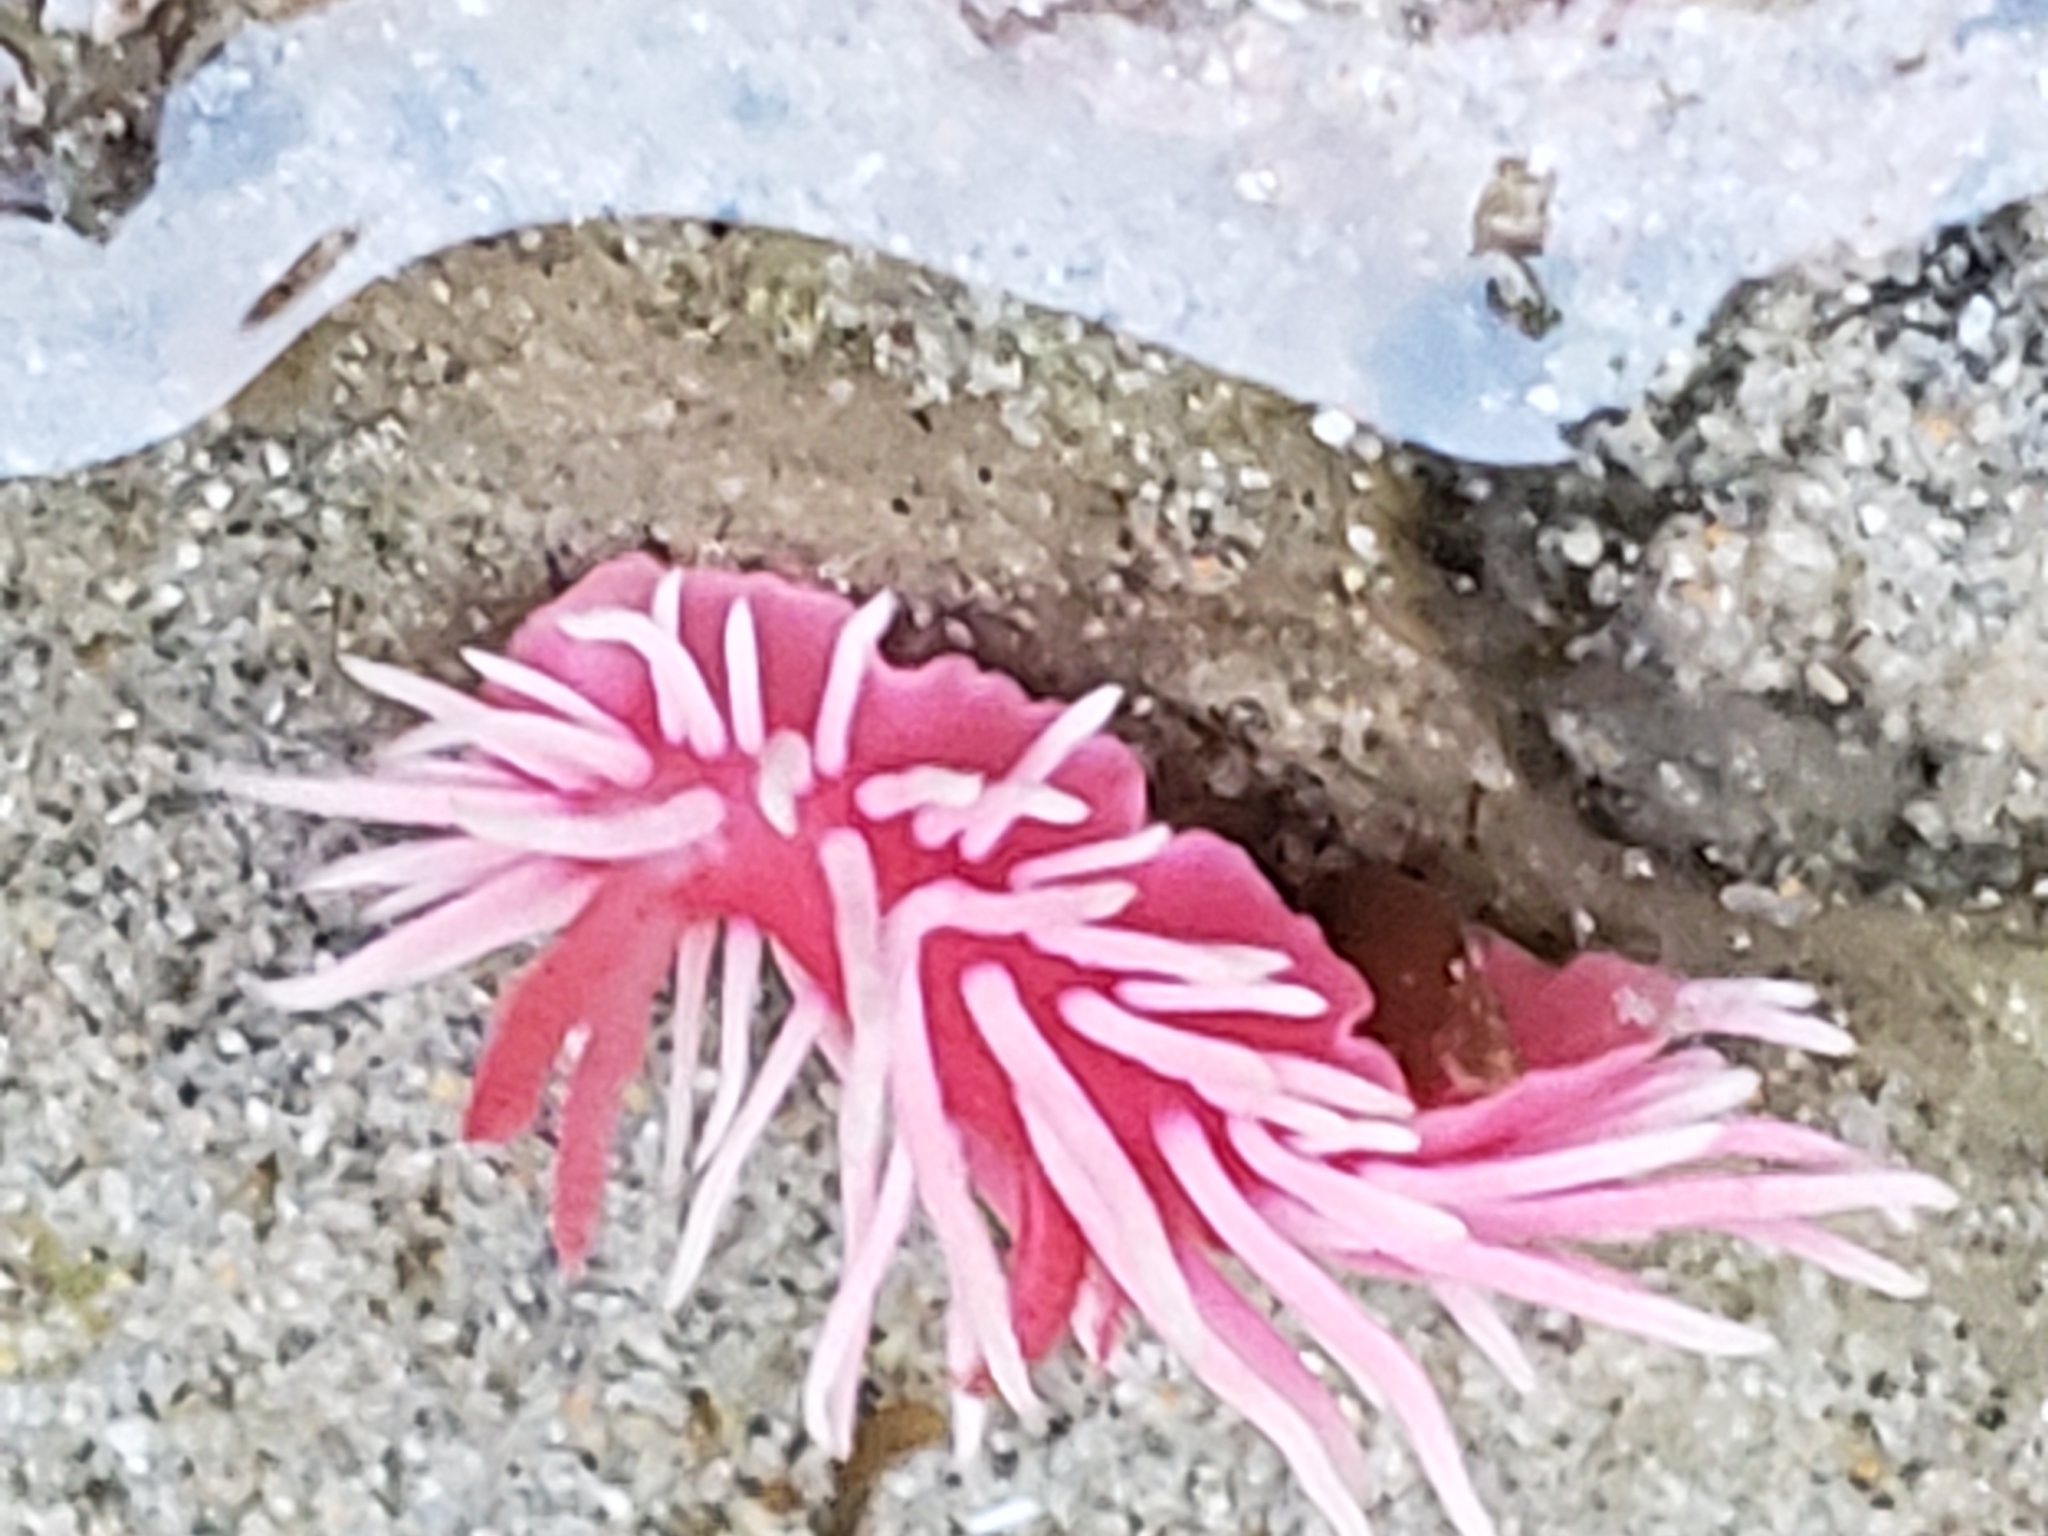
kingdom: Animalia
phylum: Mollusca
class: Gastropoda
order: Nudibranchia
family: Goniodorididae
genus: Okenia
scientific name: Okenia
